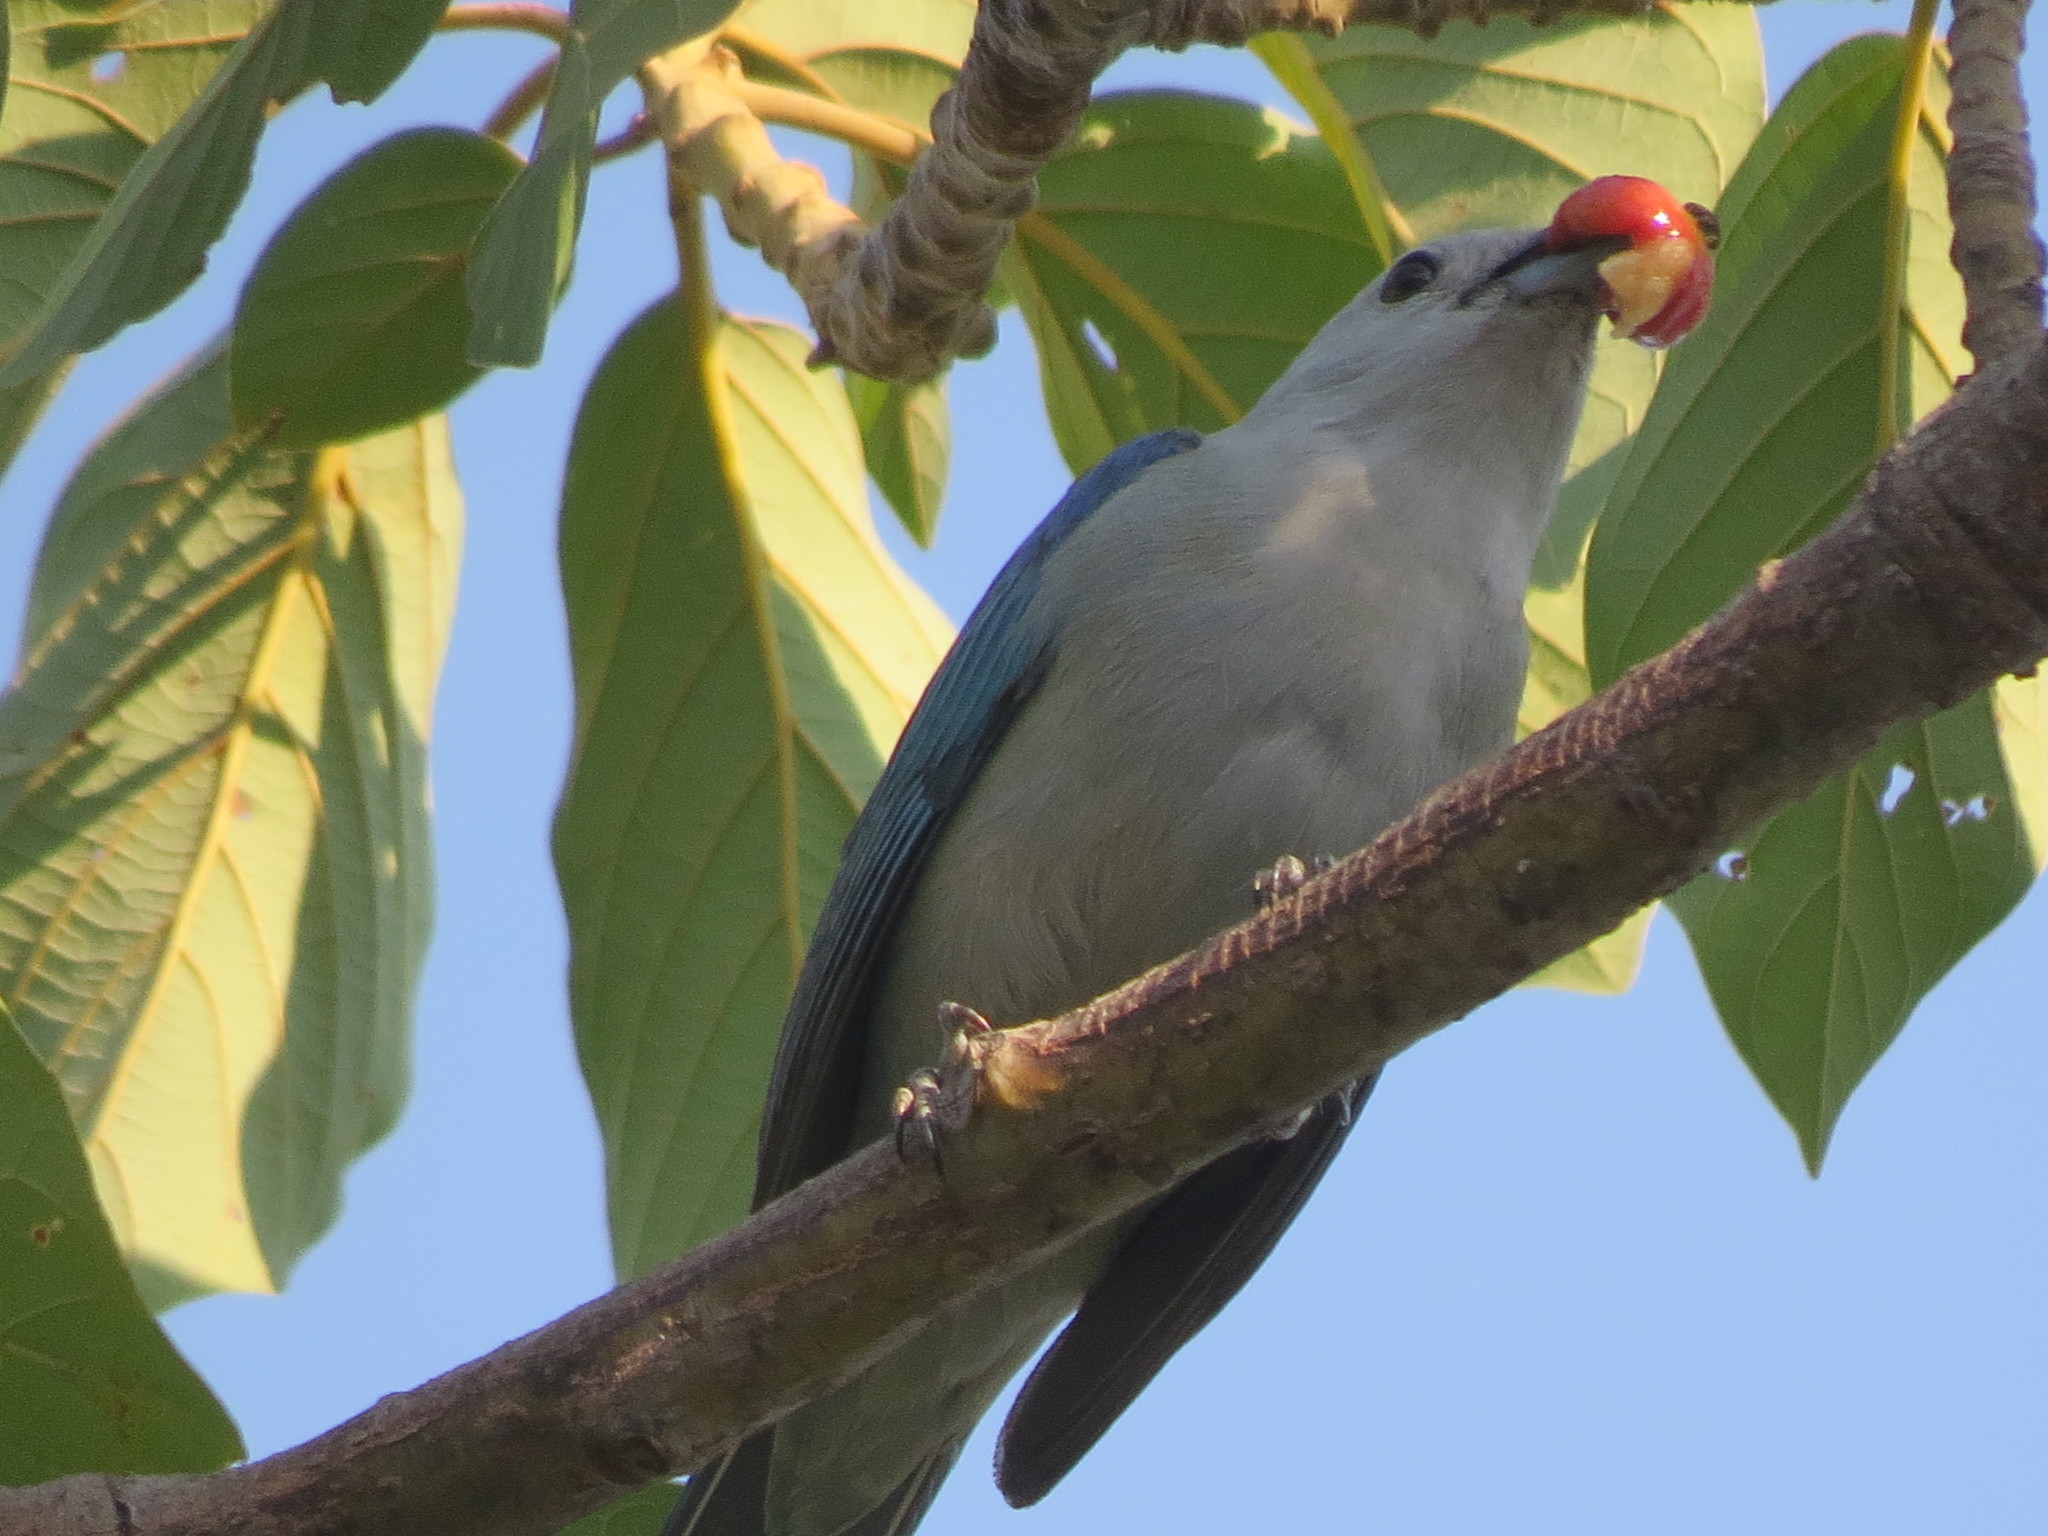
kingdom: Animalia
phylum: Chordata
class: Aves
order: Passeriformes
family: Thraupidae
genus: Thraupis
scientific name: Thraupis episcopus
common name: Blue-grey tanager
